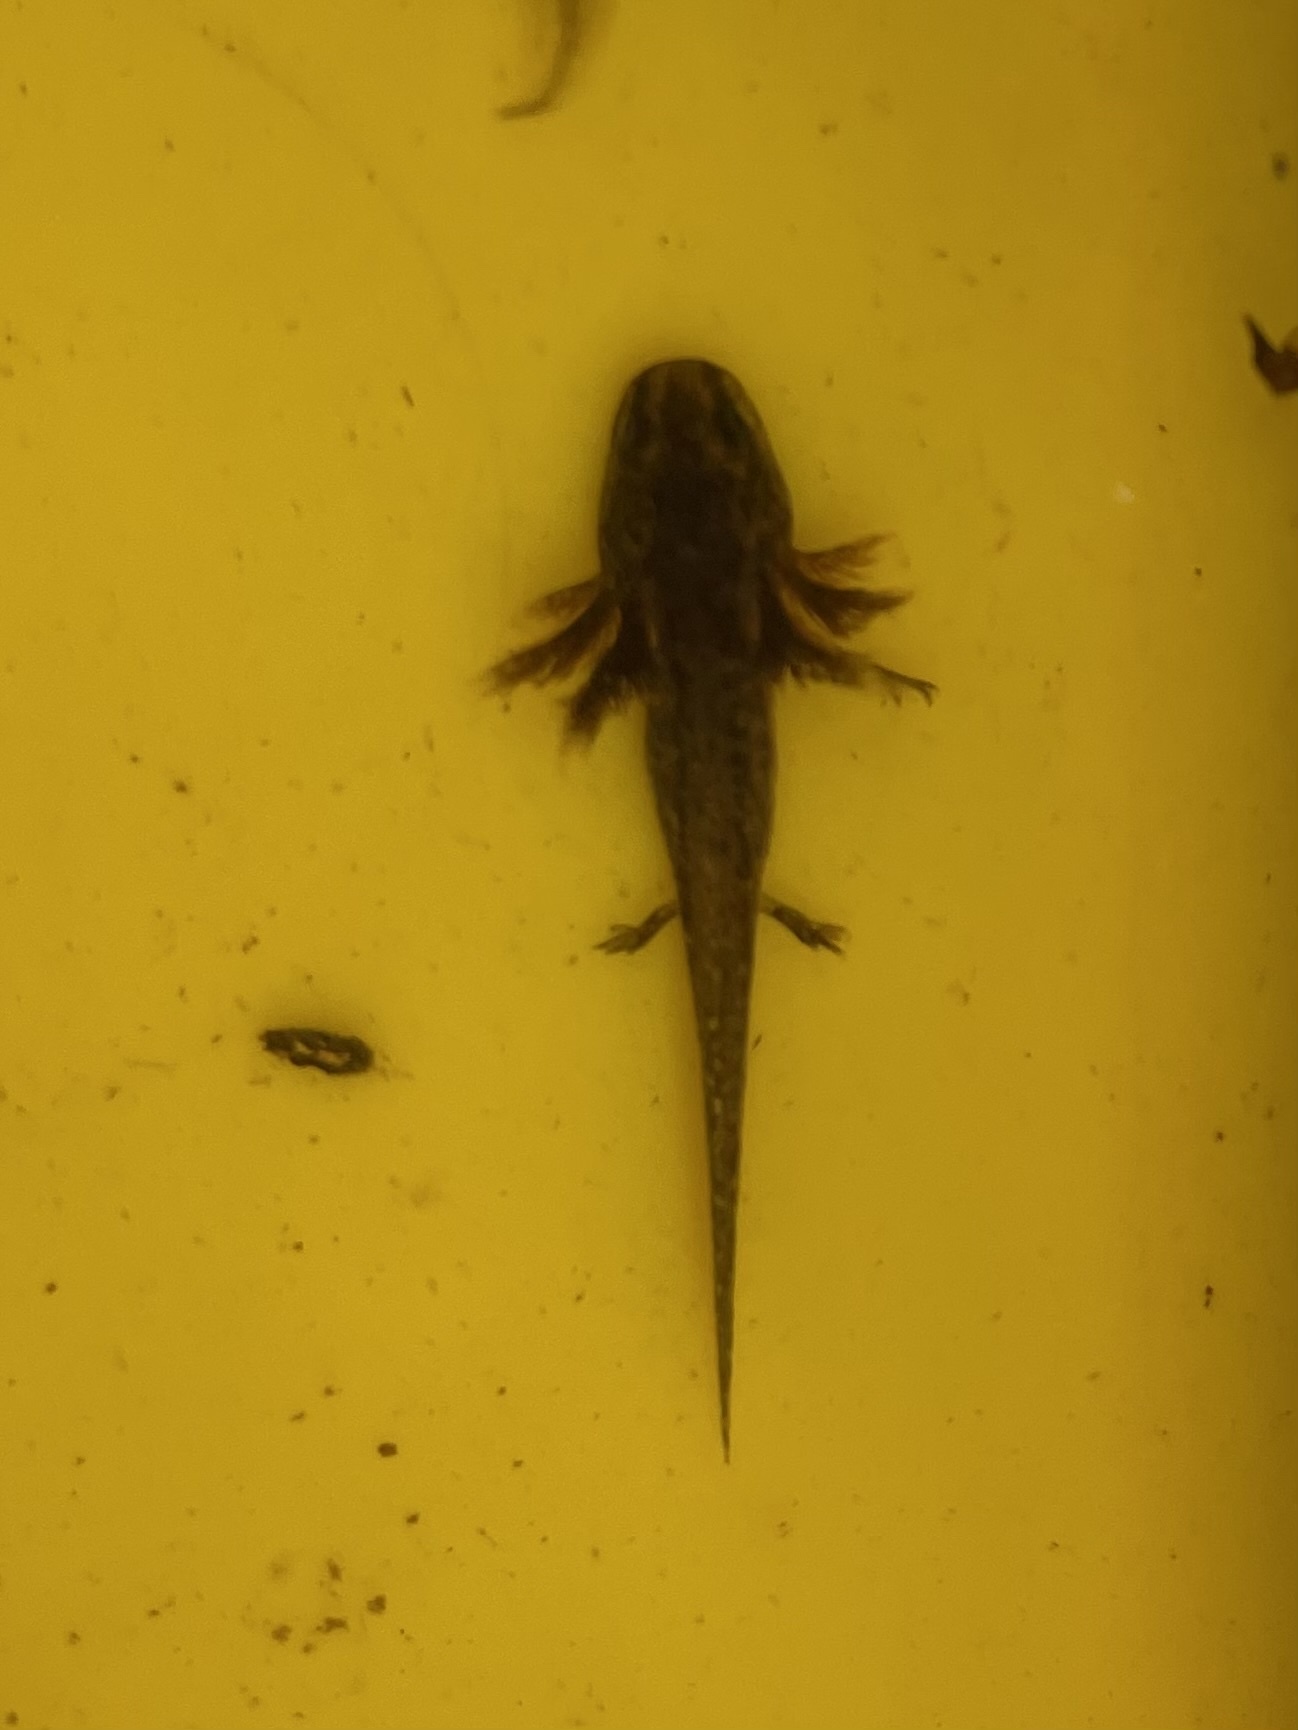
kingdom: Animalia
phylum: Chordata
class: Amphibia
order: Caudata
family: Ambystomatidae
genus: Ambystoma
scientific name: Ambystoma gracile
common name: Northwestern salamander
